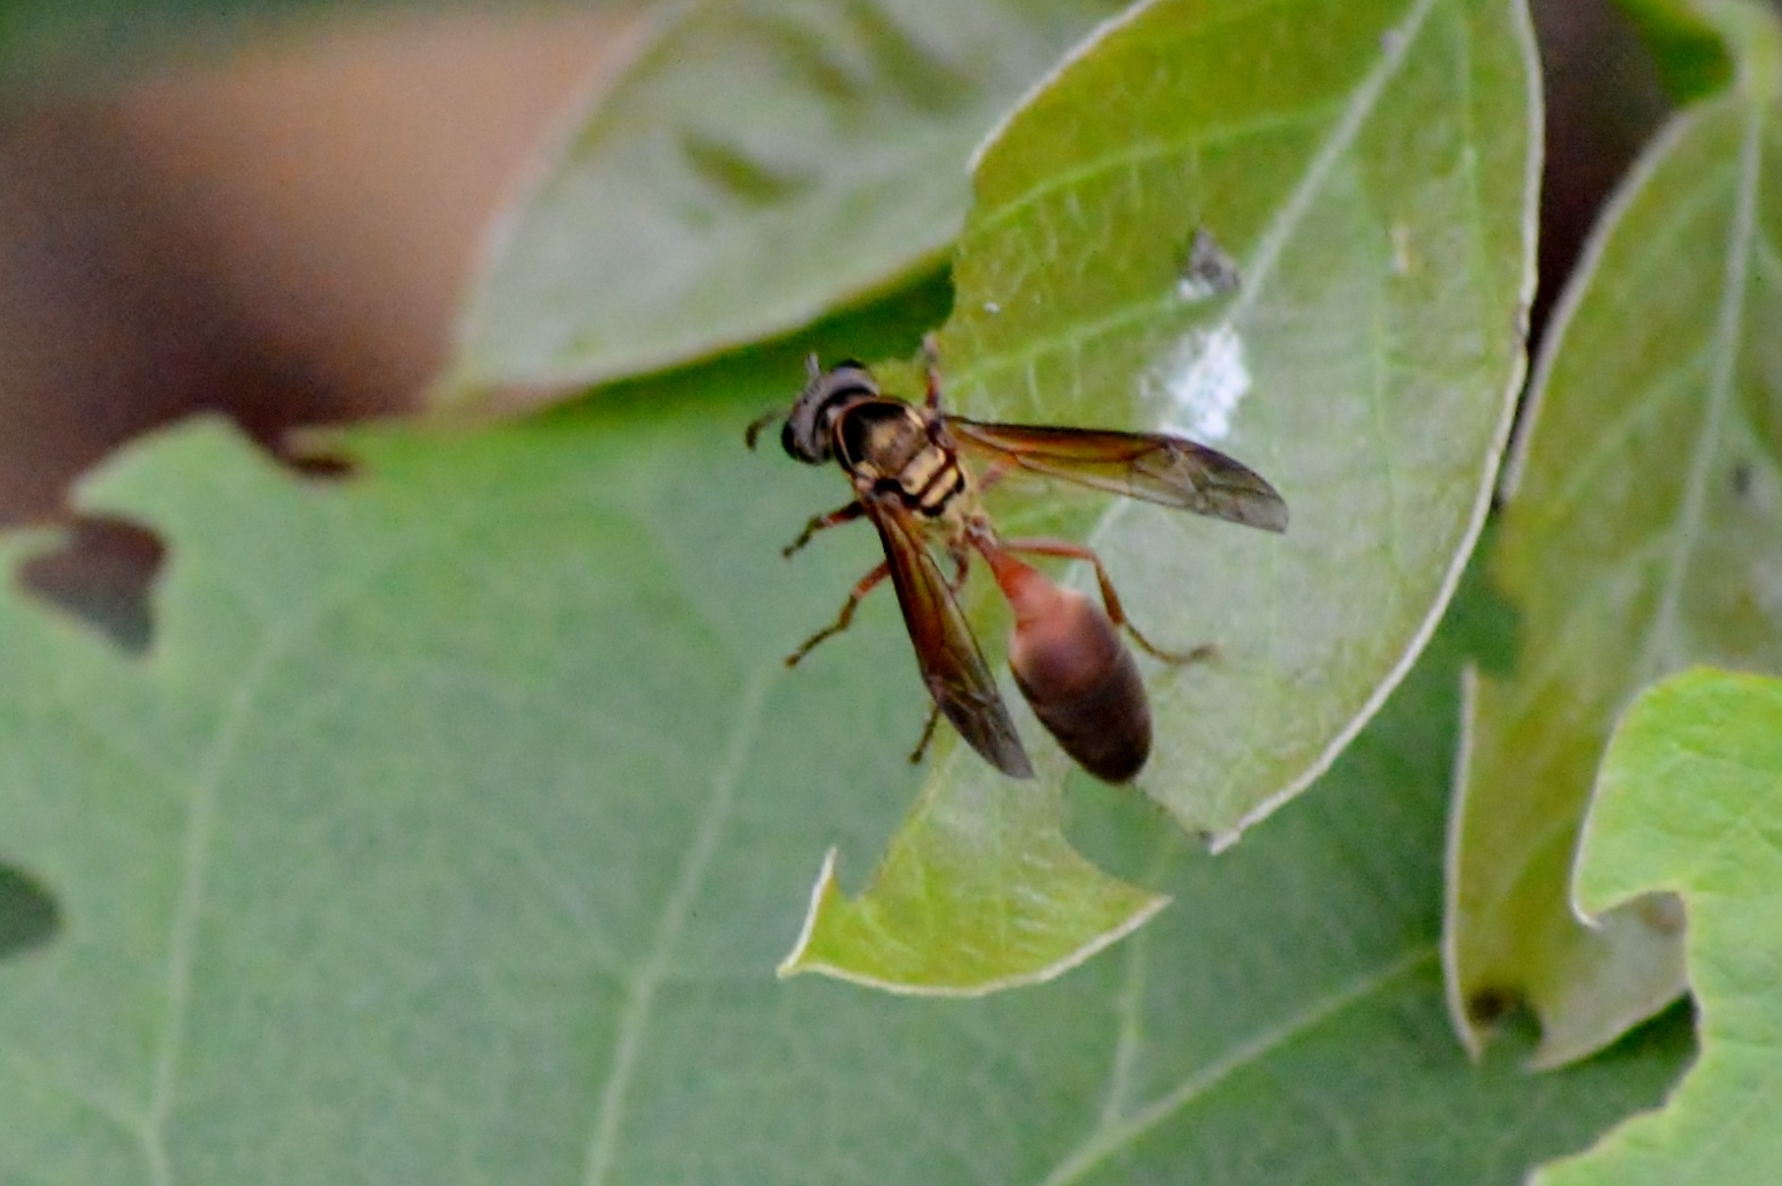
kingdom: Animalia
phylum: Arthropoda
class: Insecta
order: Hymenoptera
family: Eumenidae
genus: Polybia
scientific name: Polybia chrysothorax
